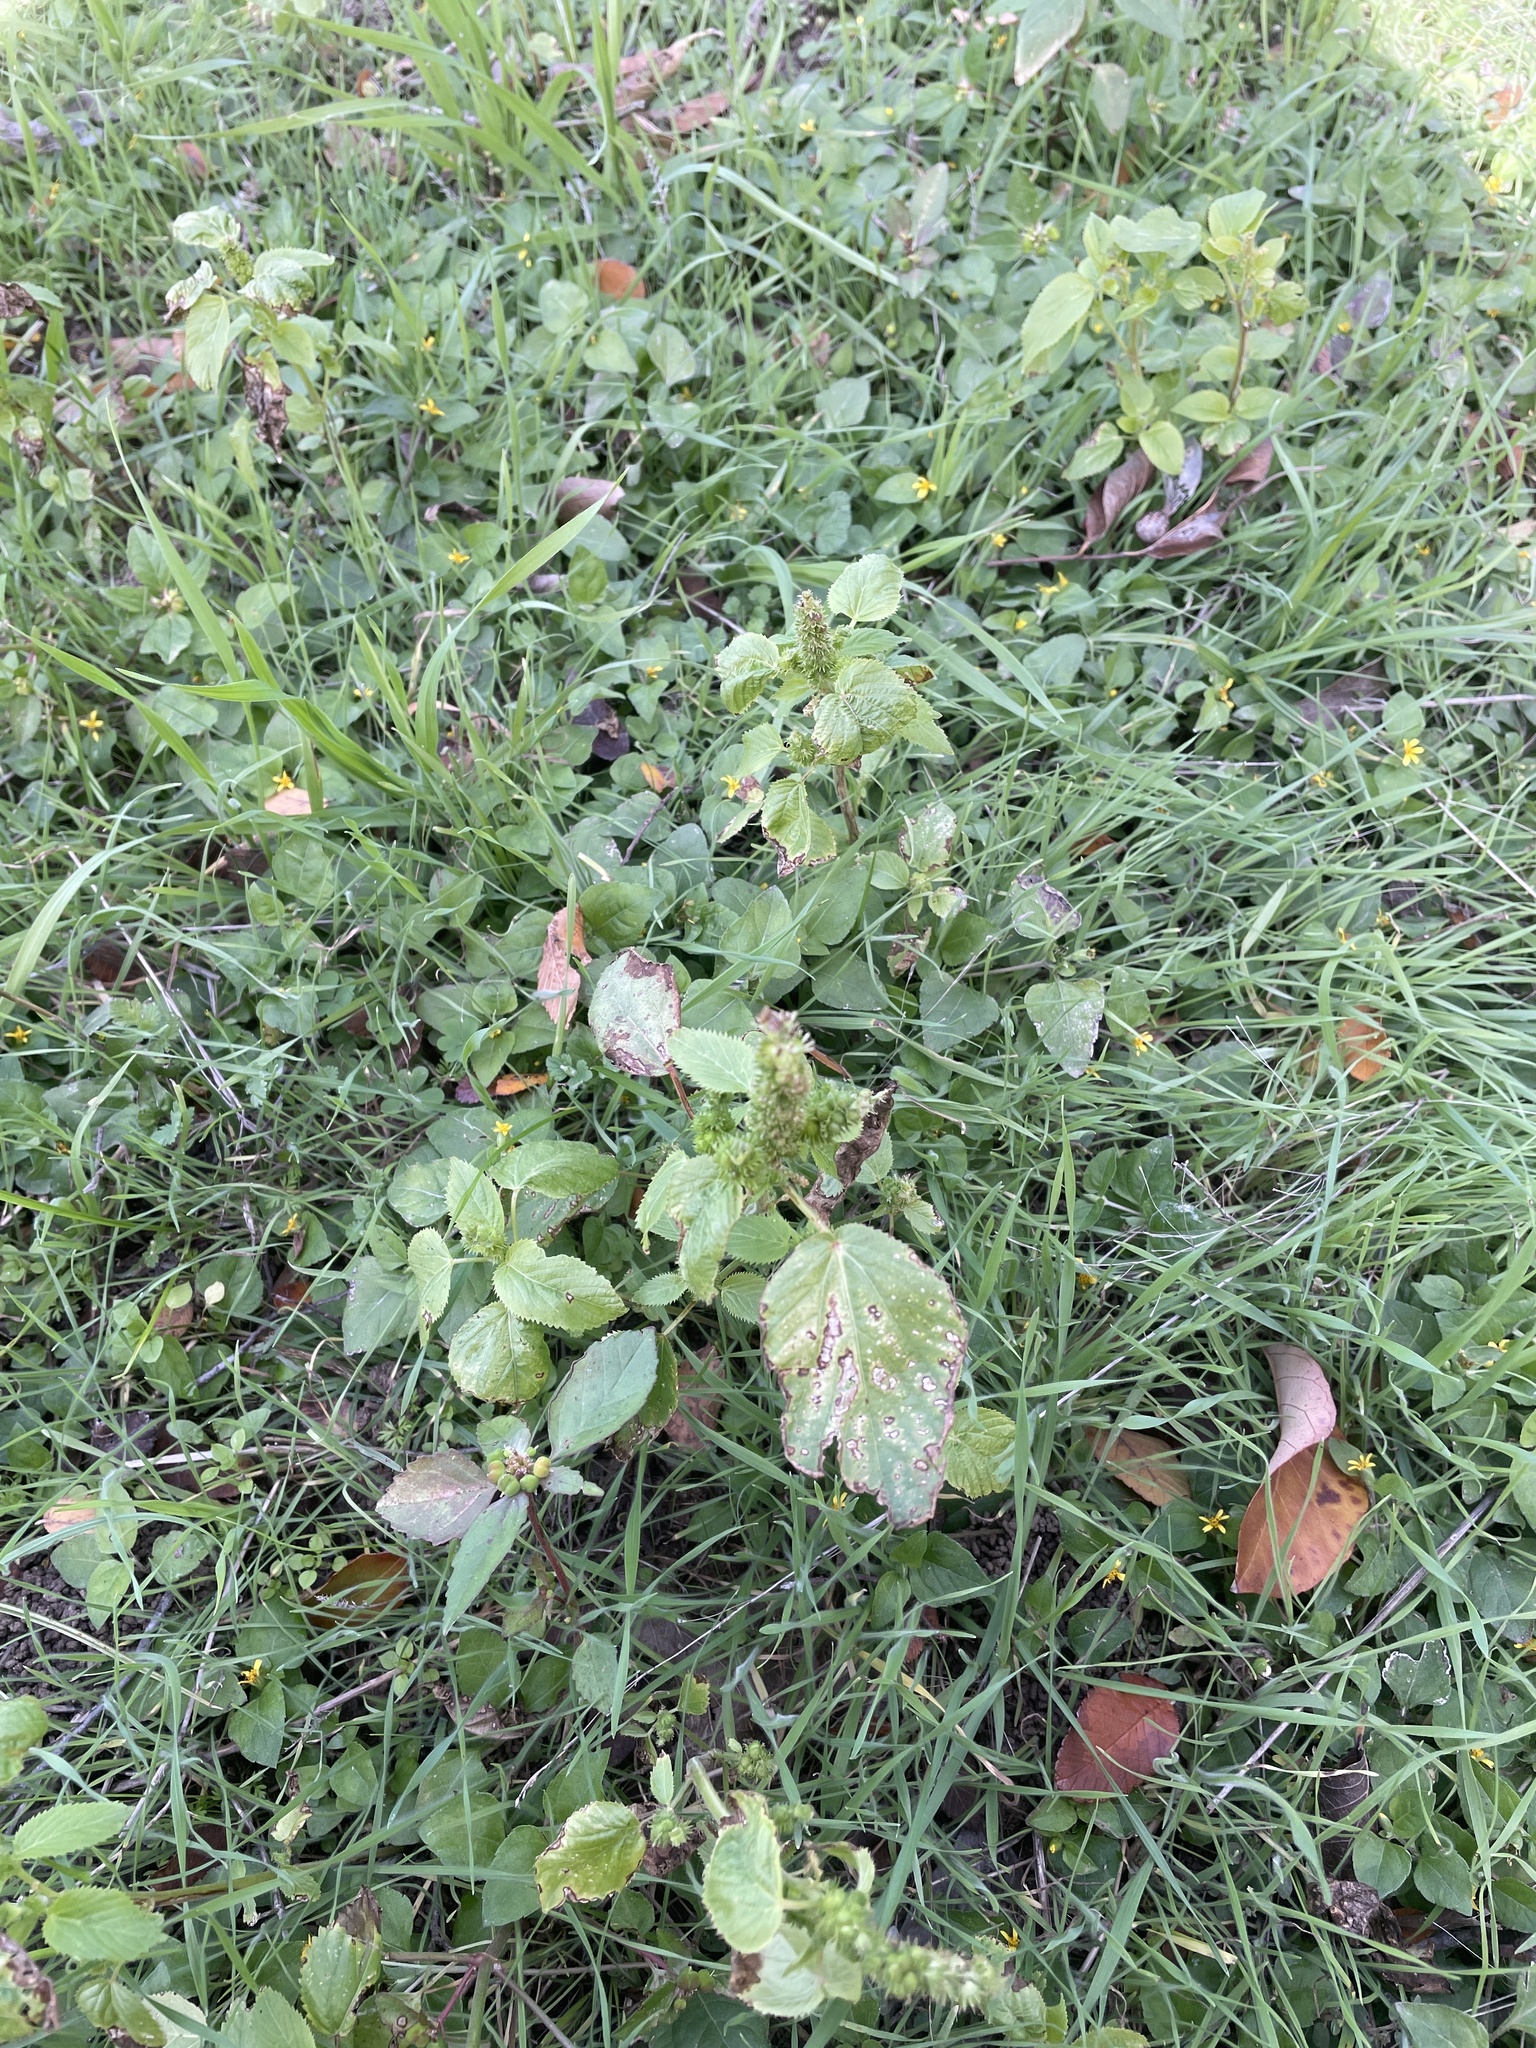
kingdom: Plantae
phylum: Tracheophyta
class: Magnoliopsida
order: Malpighiales
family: Euphorbiaceae
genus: Acalypha
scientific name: Acalypha ostryifolia
